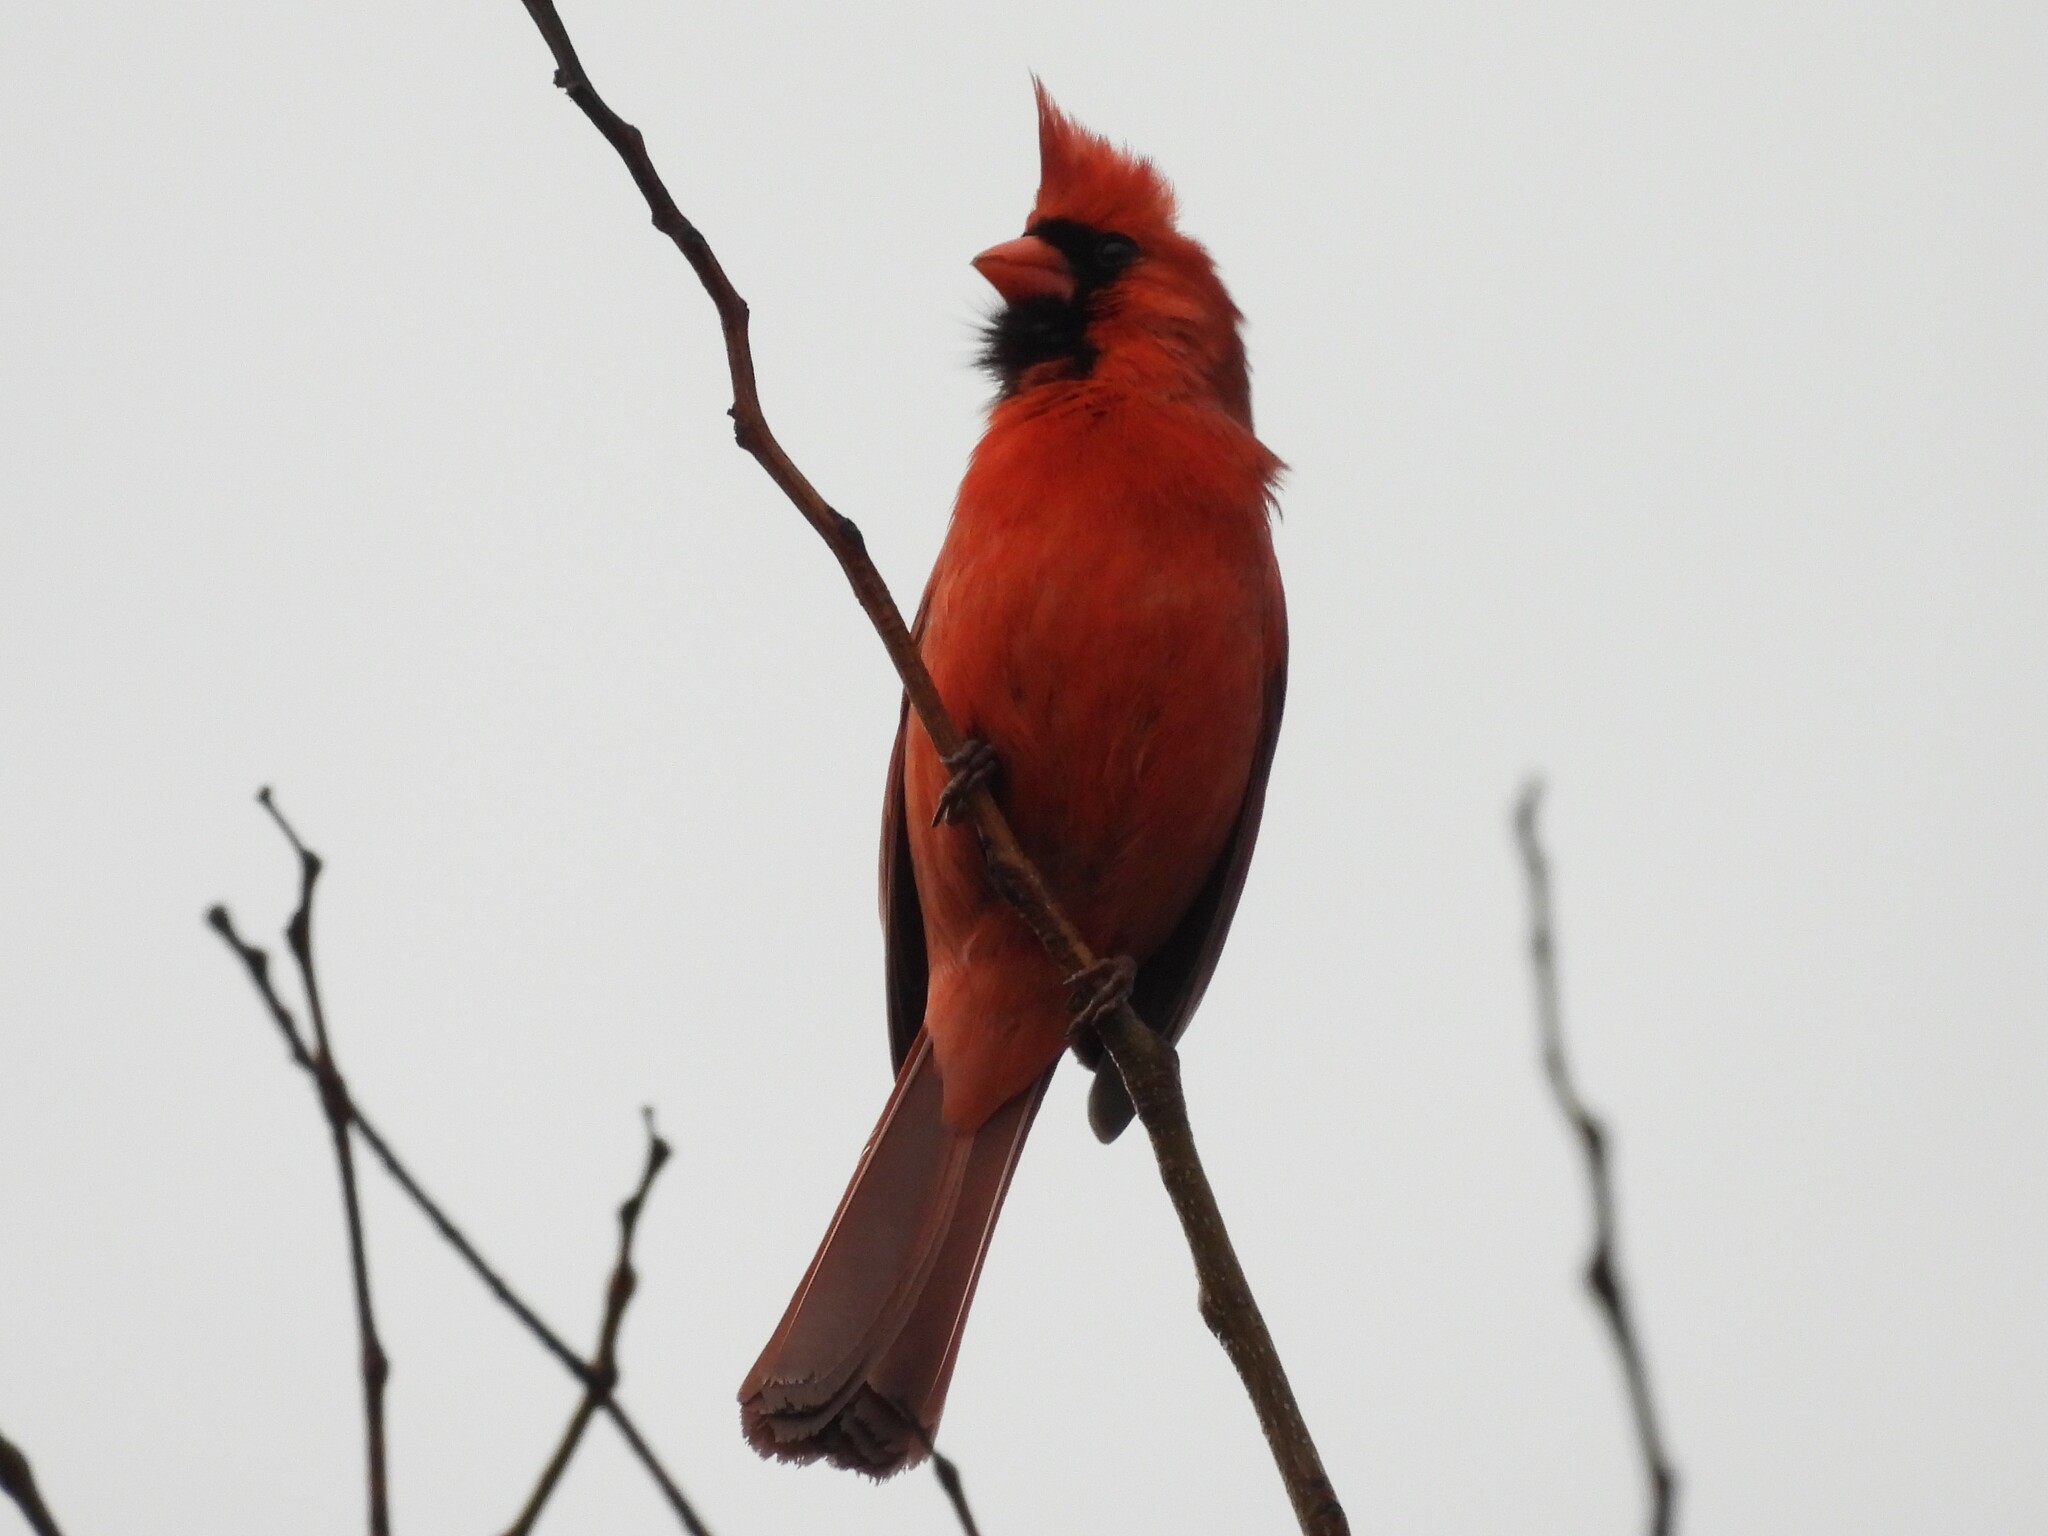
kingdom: Animalia
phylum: Chordata
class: Aves
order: Passeriformes
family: Cardinalidae
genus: Cardinalis
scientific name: Cardinalis cardinalis
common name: Northern cardinal
